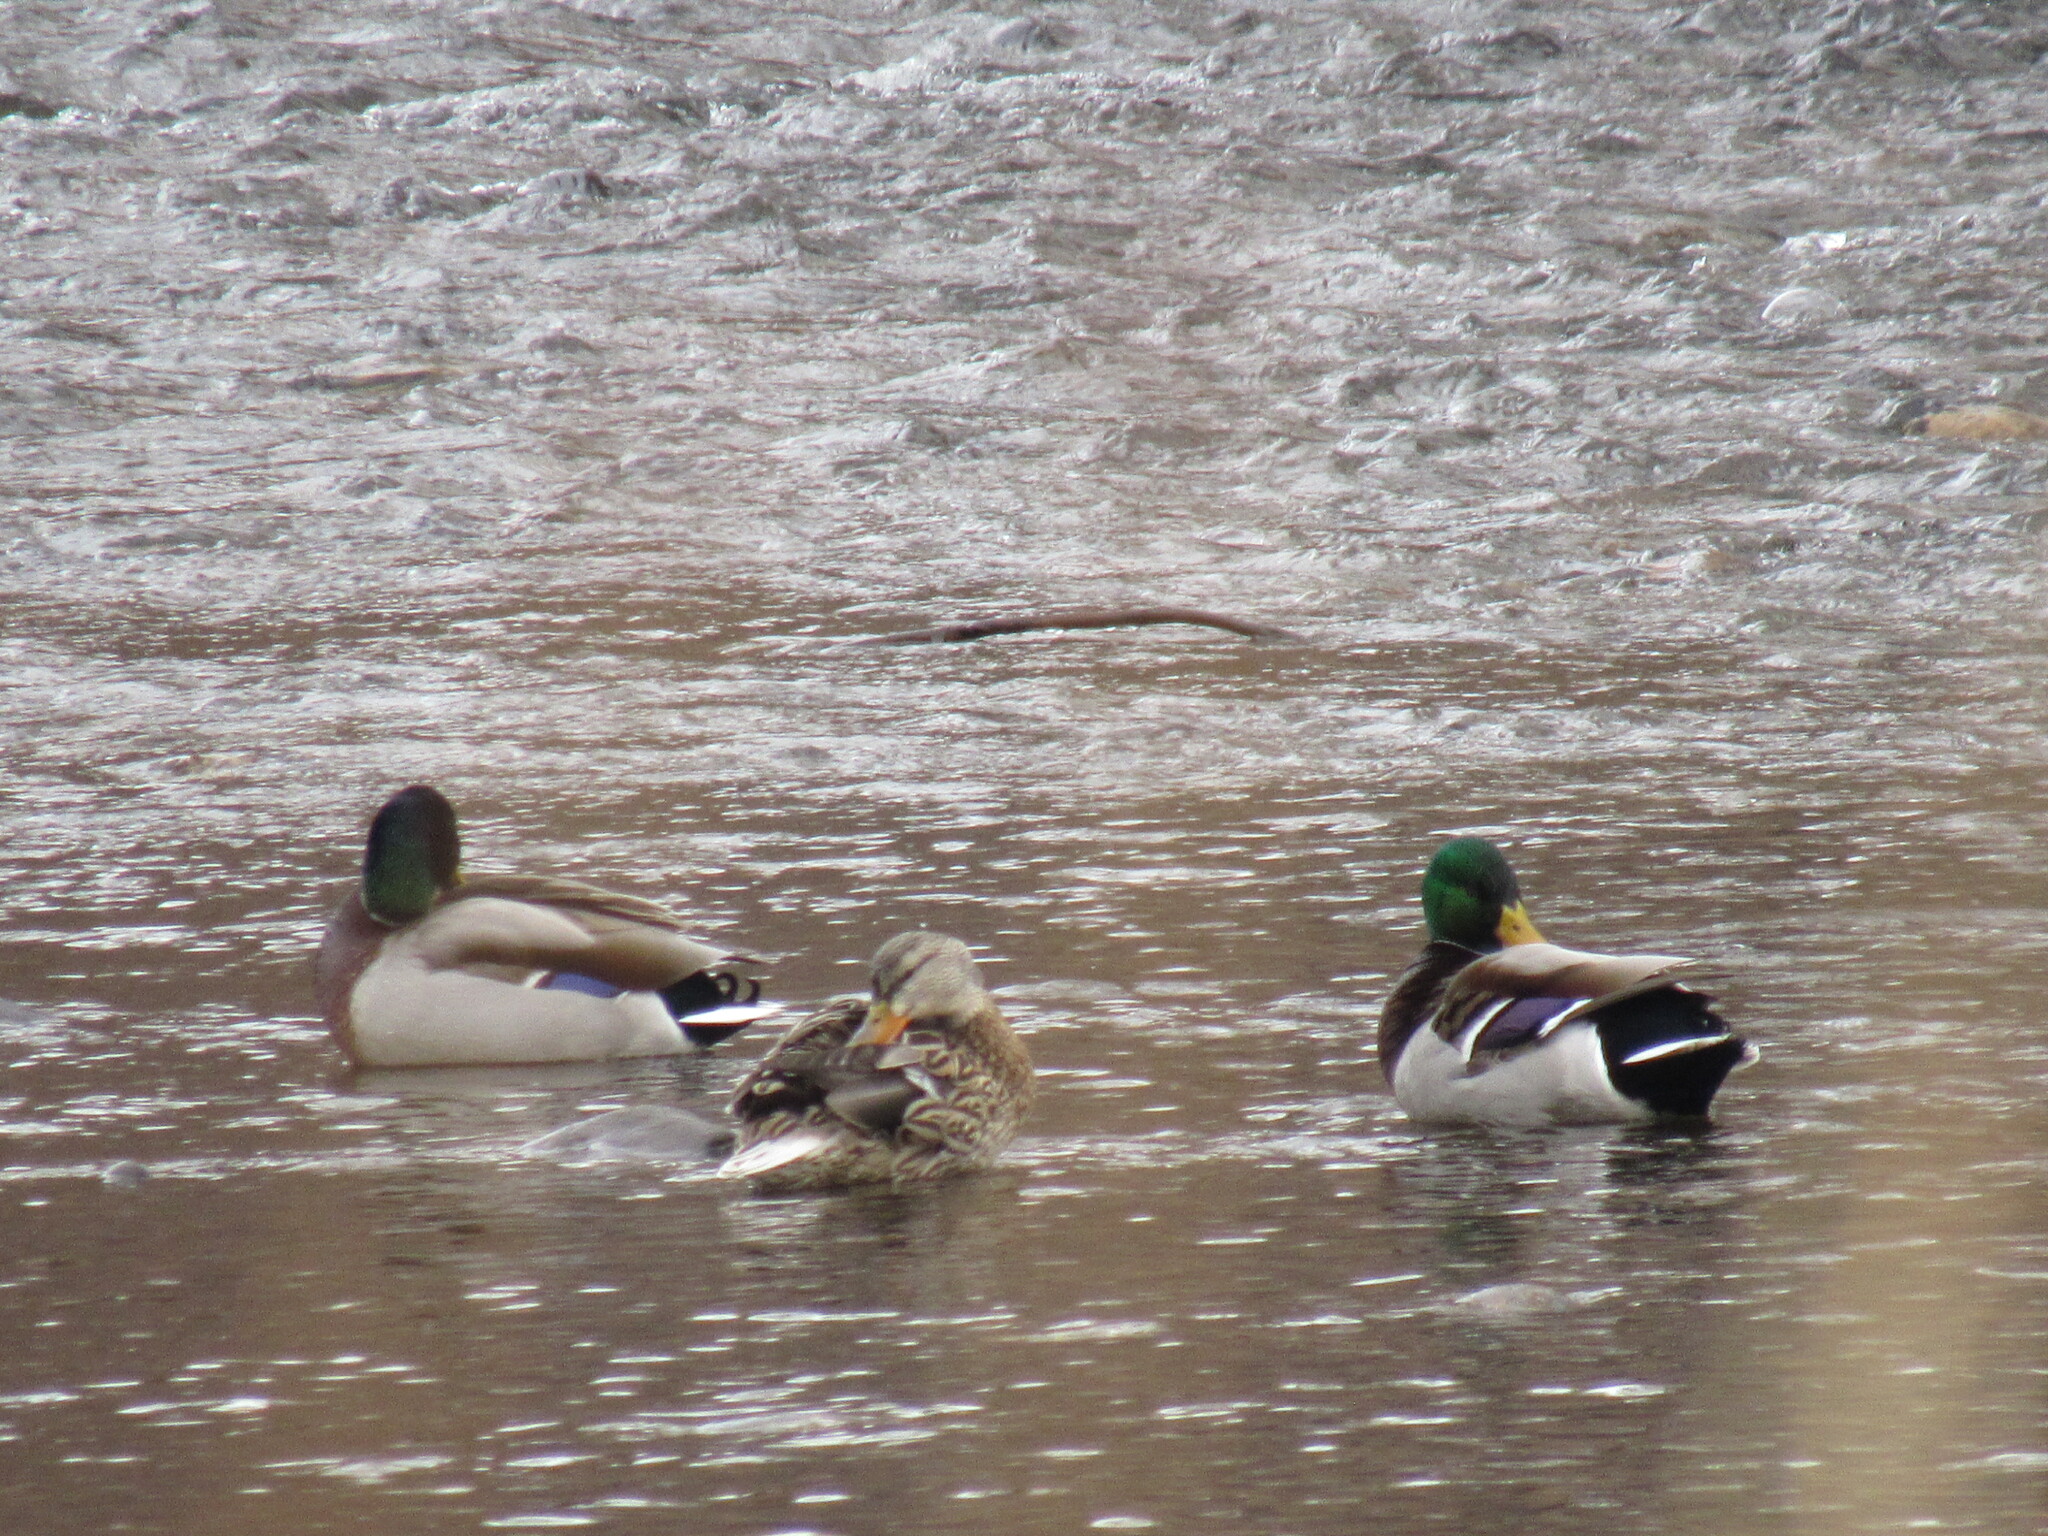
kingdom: Animalia
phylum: Chordata
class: Aves
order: Anseriformes
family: Anatidae
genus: Anas
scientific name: Anas platyrhynchos
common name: Mallard
